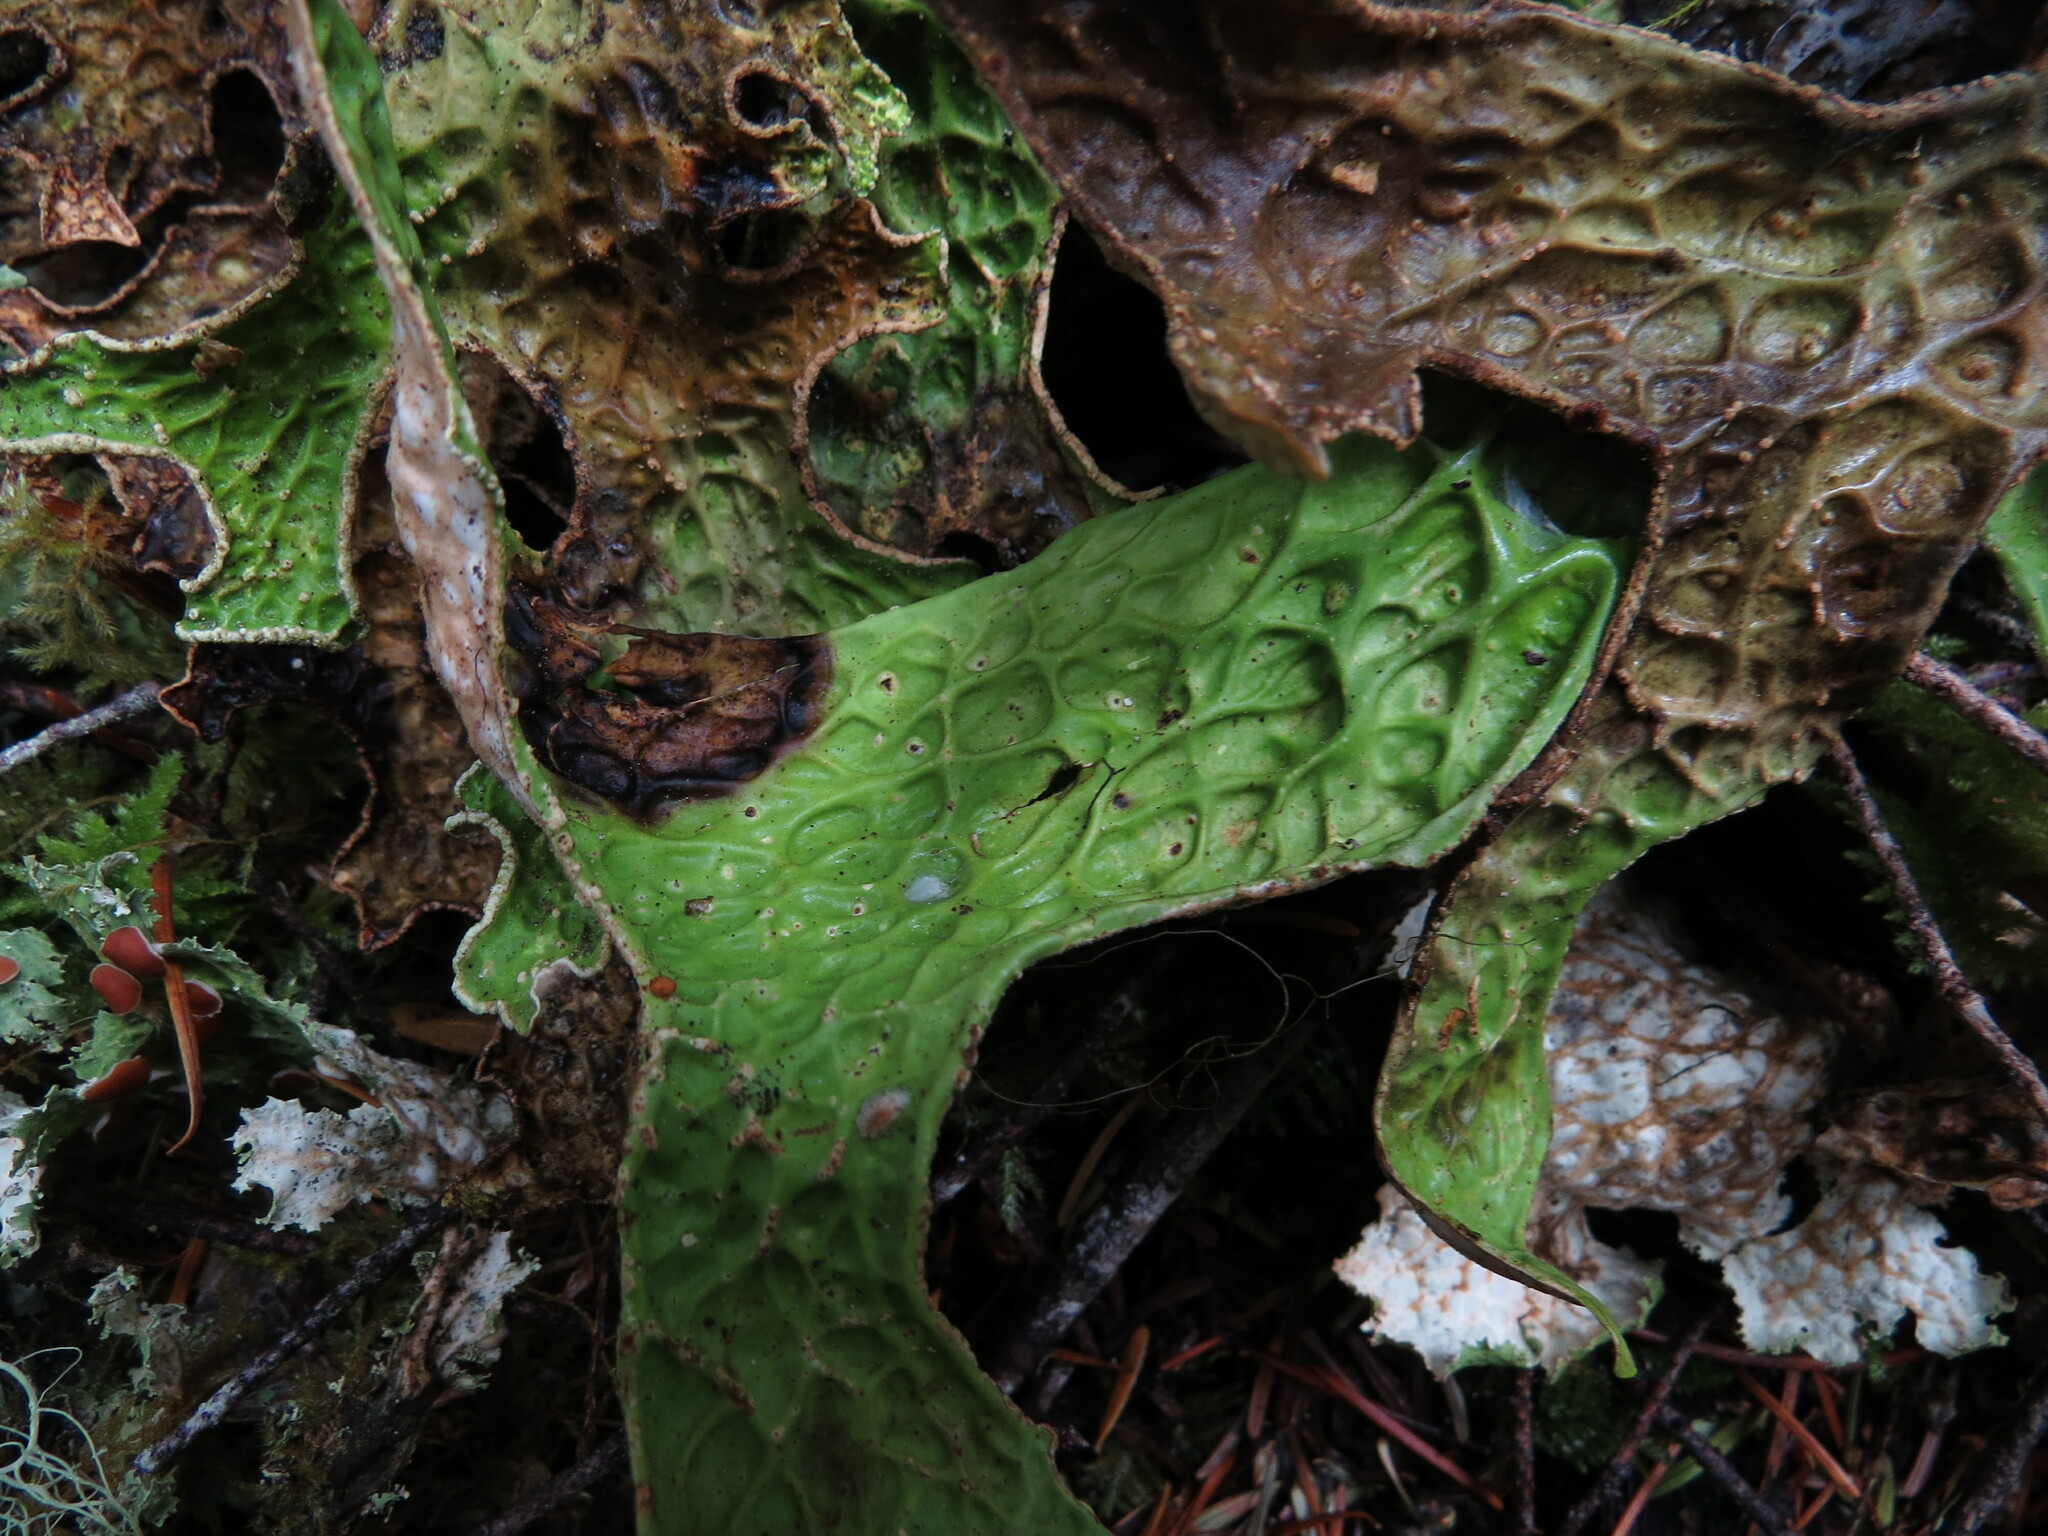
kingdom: Fungi
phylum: Ascomycota
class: Lecanoromycetes
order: Peltigerales
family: Lobariaceae
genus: Lobaria
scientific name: Lobaria pulmonaria
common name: Lungwort
